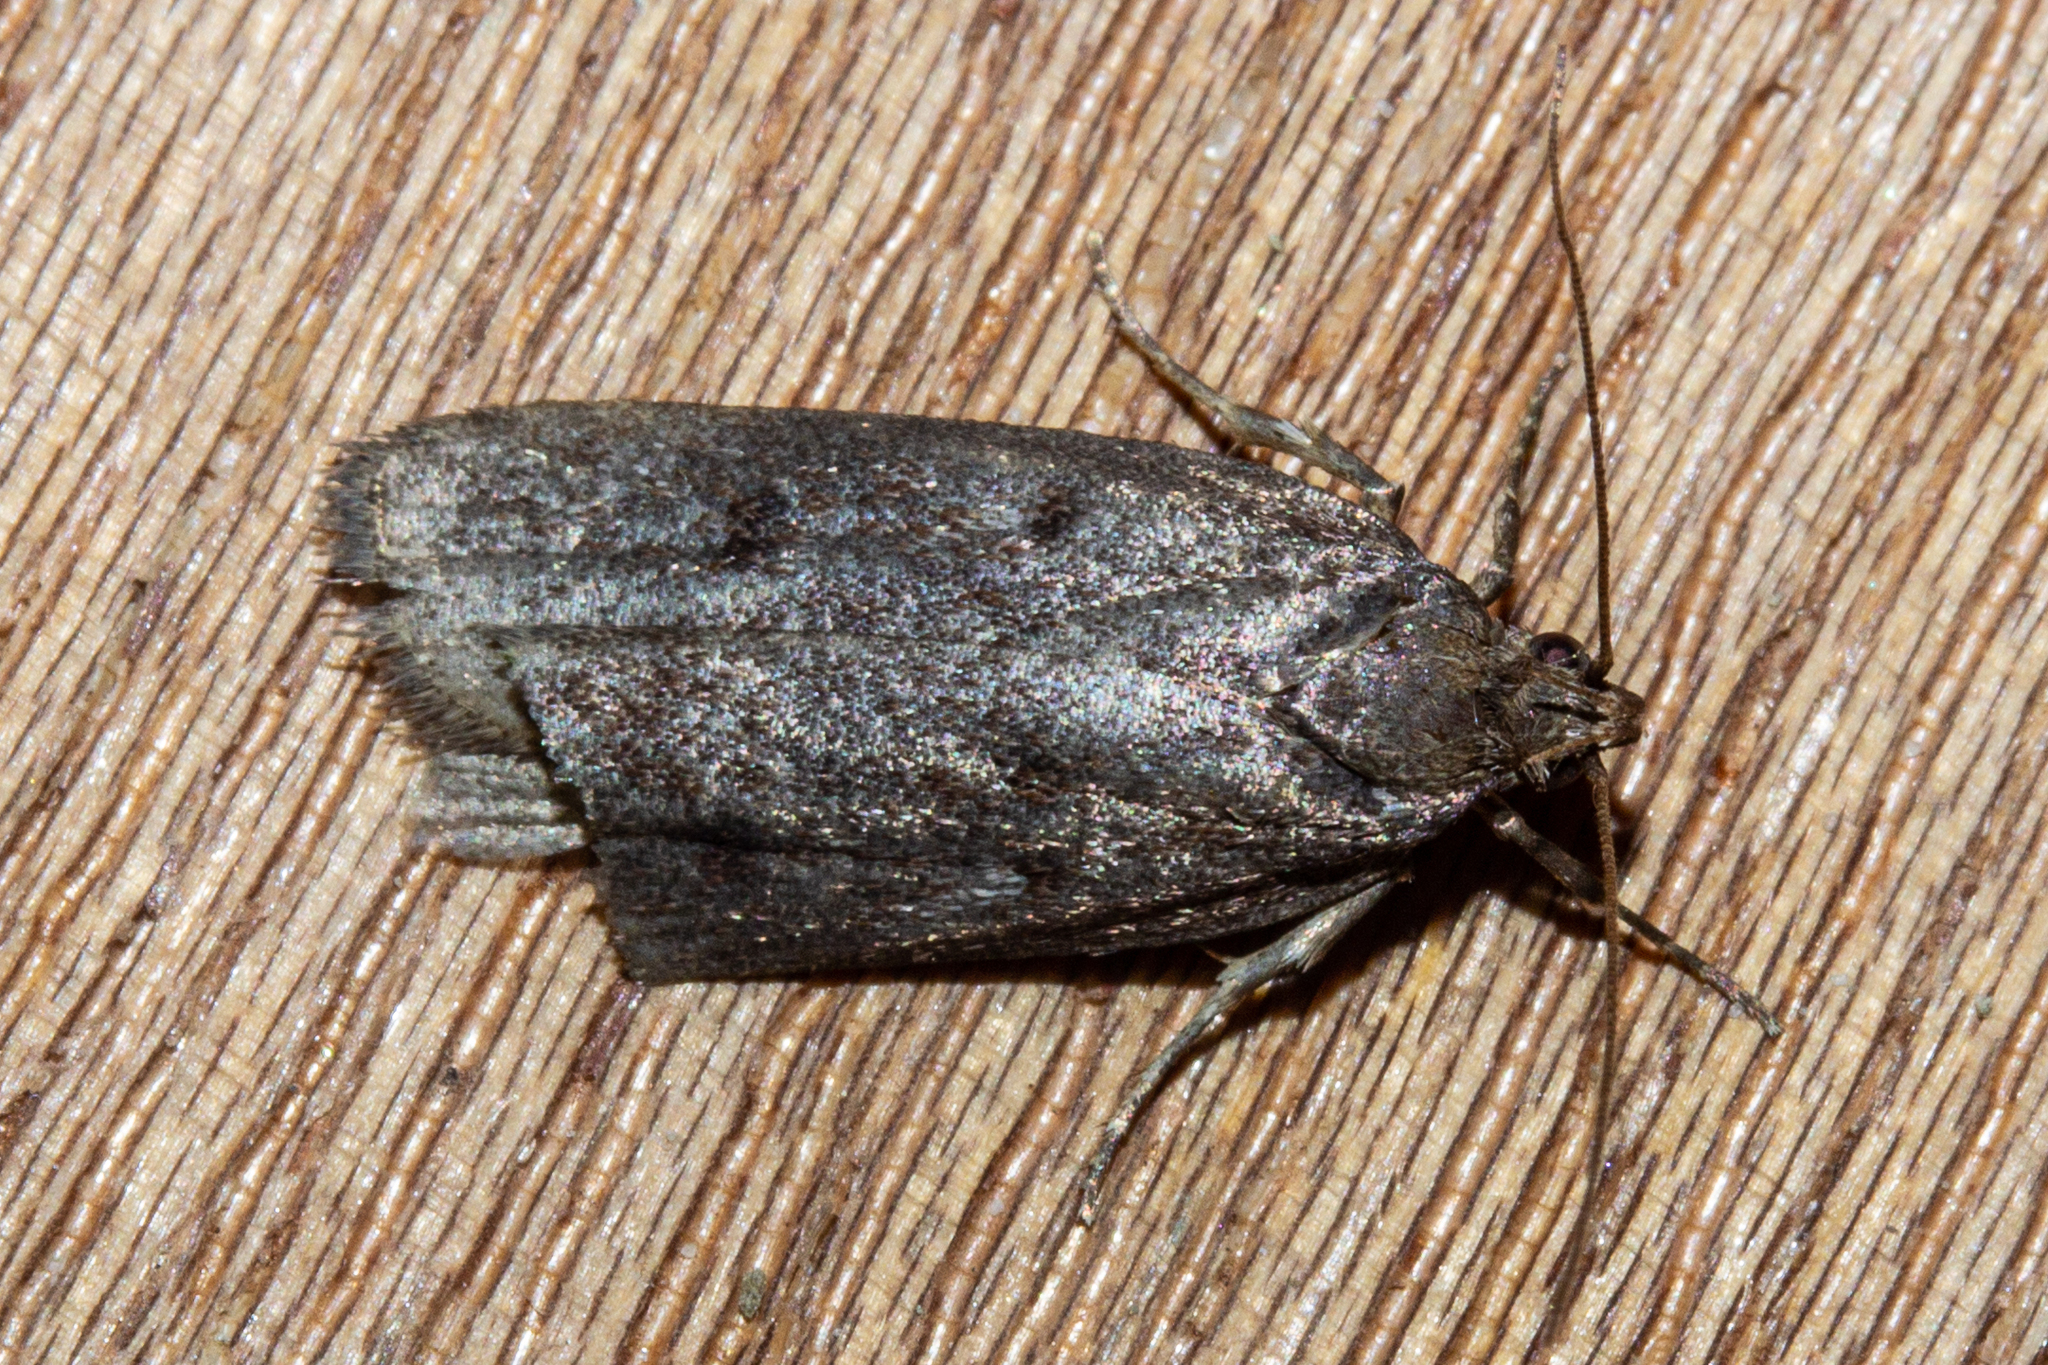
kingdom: Animalia
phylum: Arthropoda
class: Insecta
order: Lepidoptera
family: Depressariidae
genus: Phaeosaces
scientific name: Phaeosaces apocrypta
